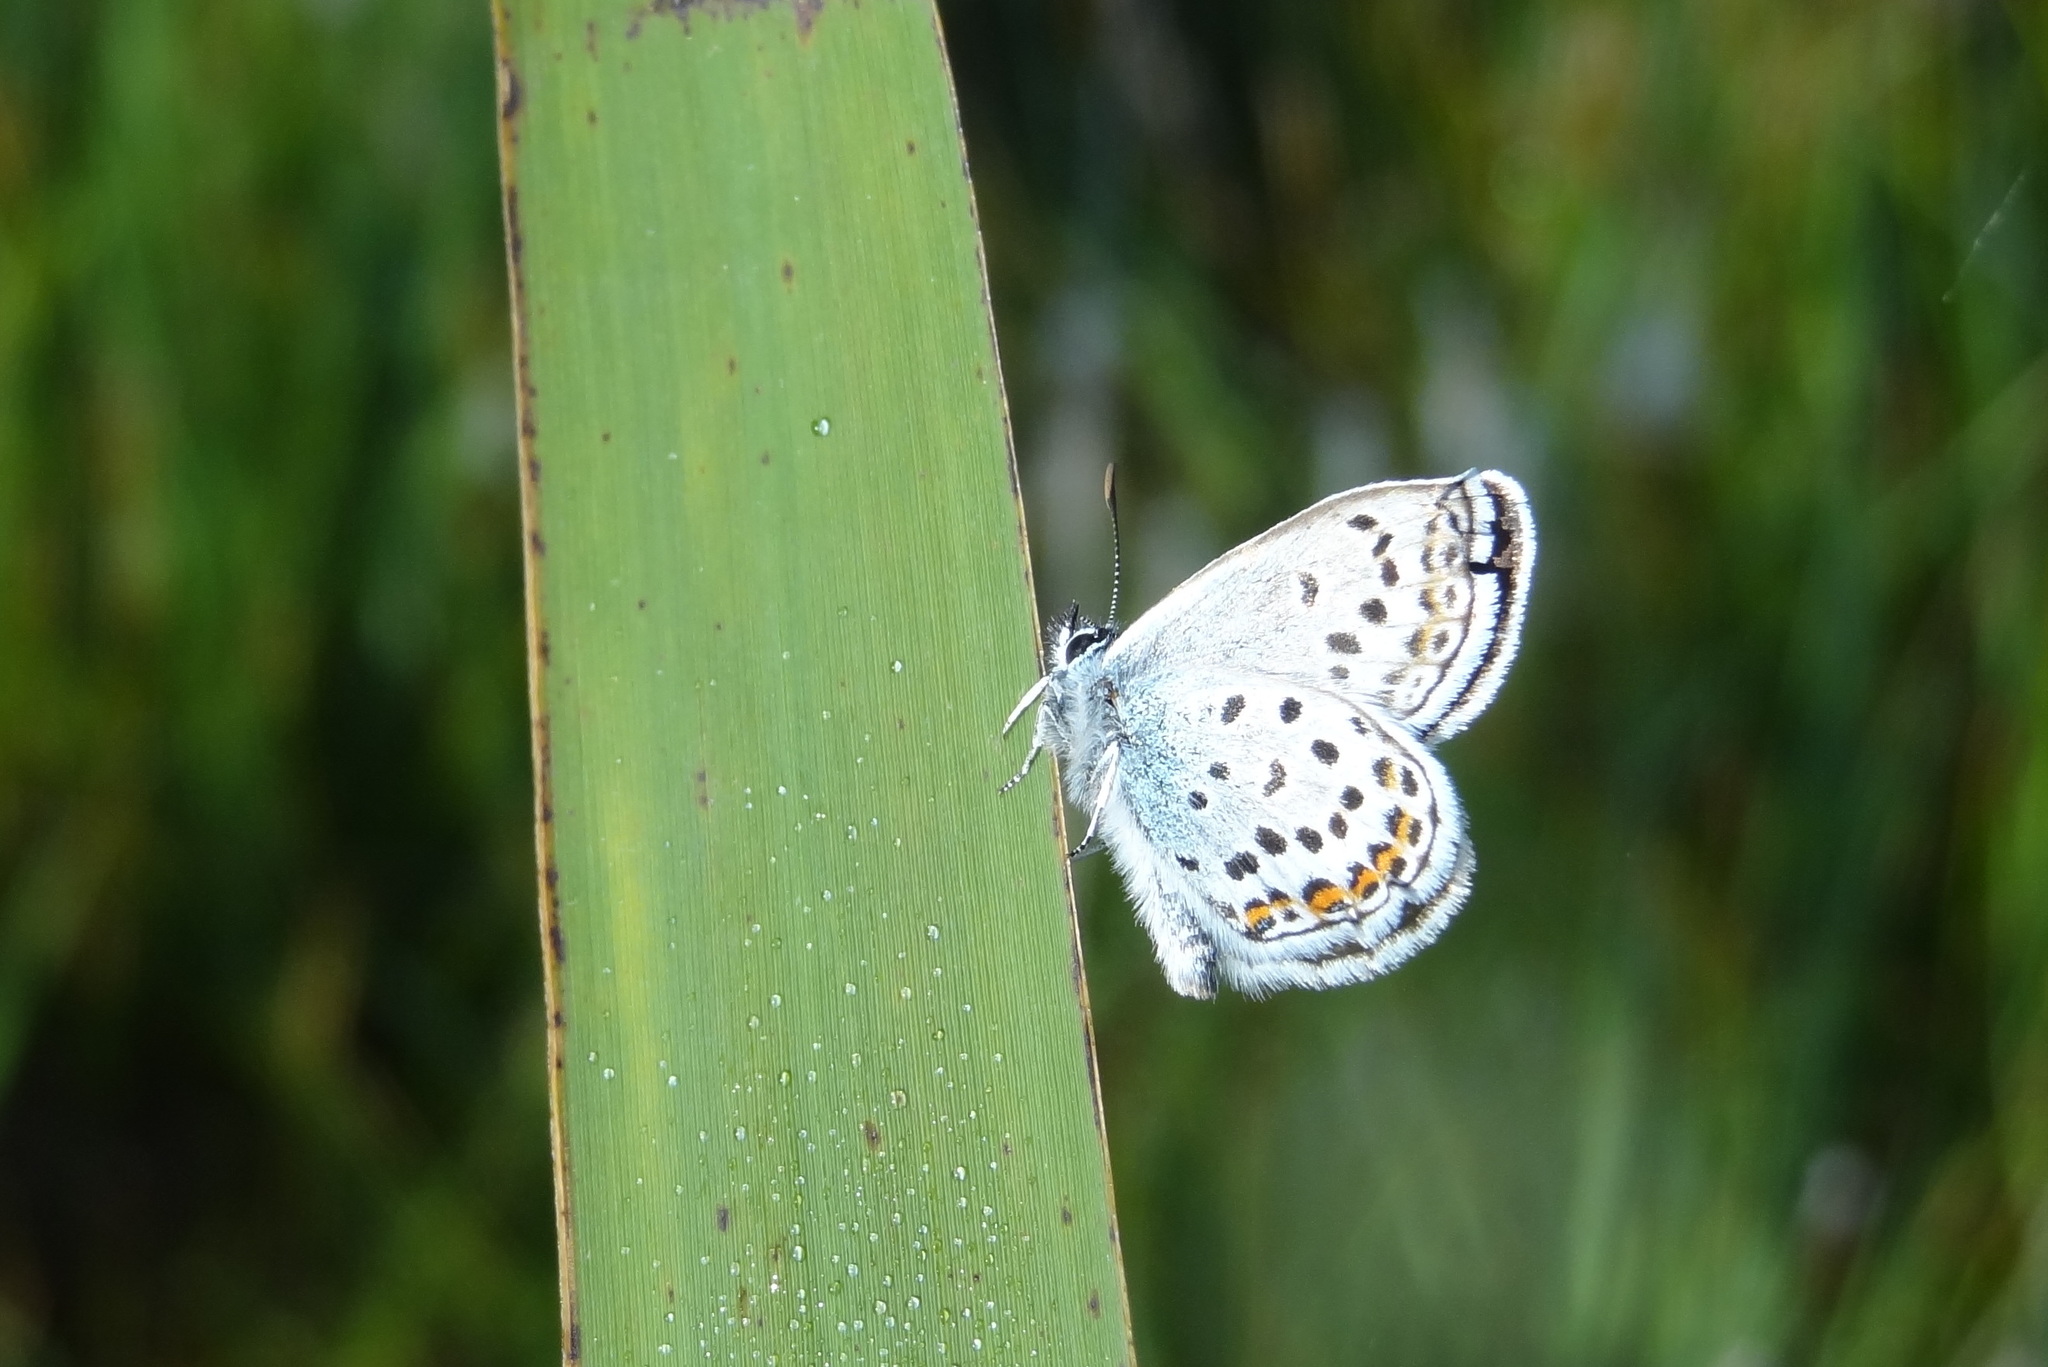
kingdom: Animalia
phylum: Arthropoda
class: Insecta
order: Lepidoptera
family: Lycaenidae
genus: Plebejus
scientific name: Plebejus argus
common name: Silver-studded blue
